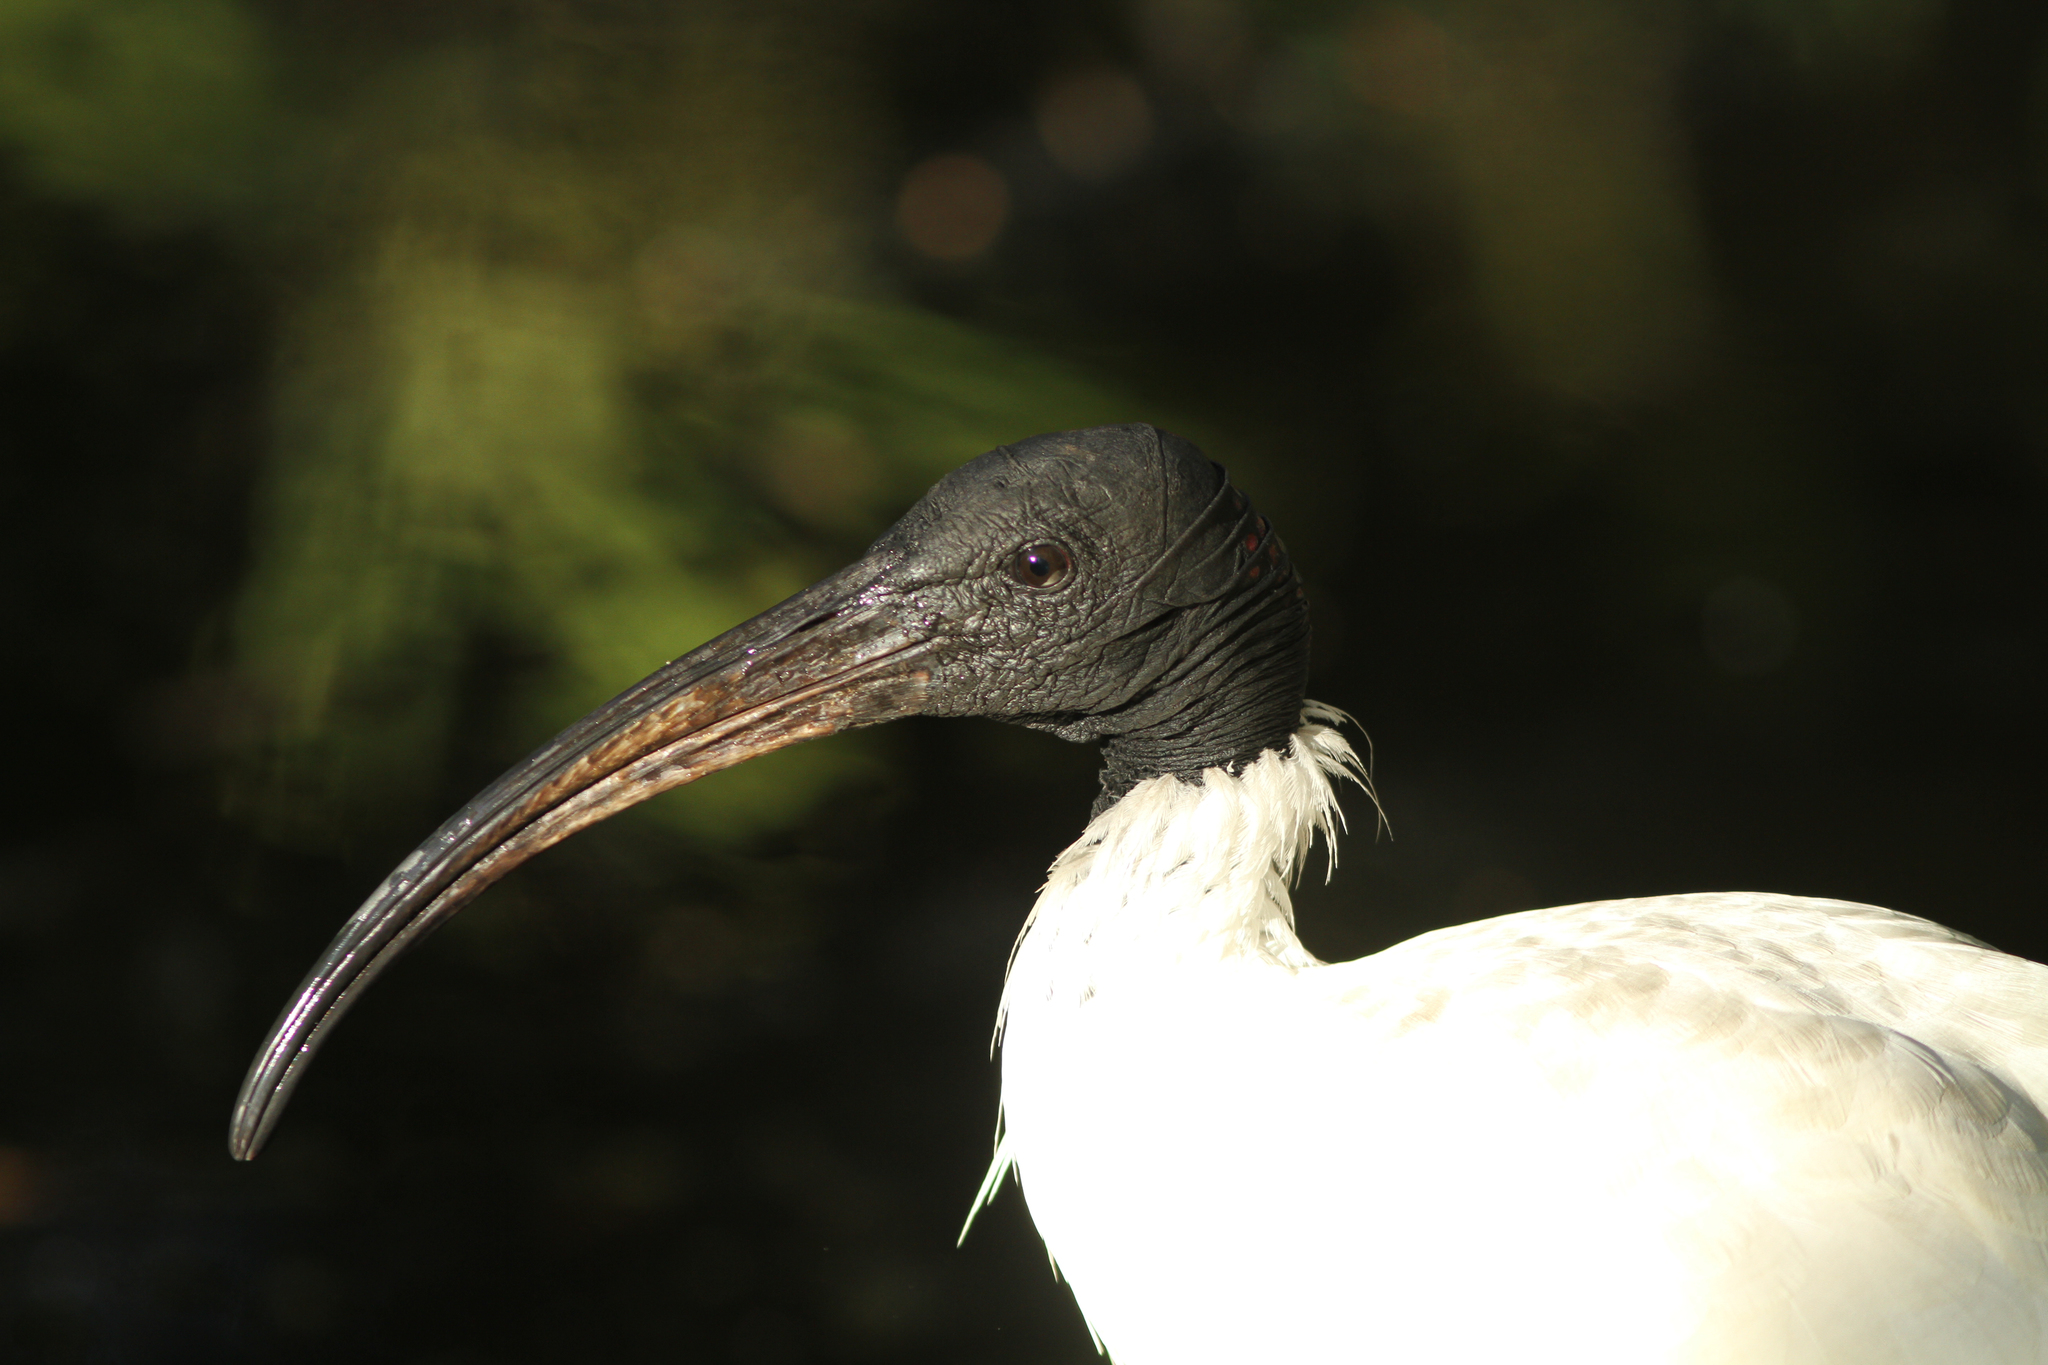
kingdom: Animalia
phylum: Chordata
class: Aves
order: Pelecaniformes
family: Threskiornithidae
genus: Threskiornis
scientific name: Threskiornis molucca
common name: Australian white ibis
